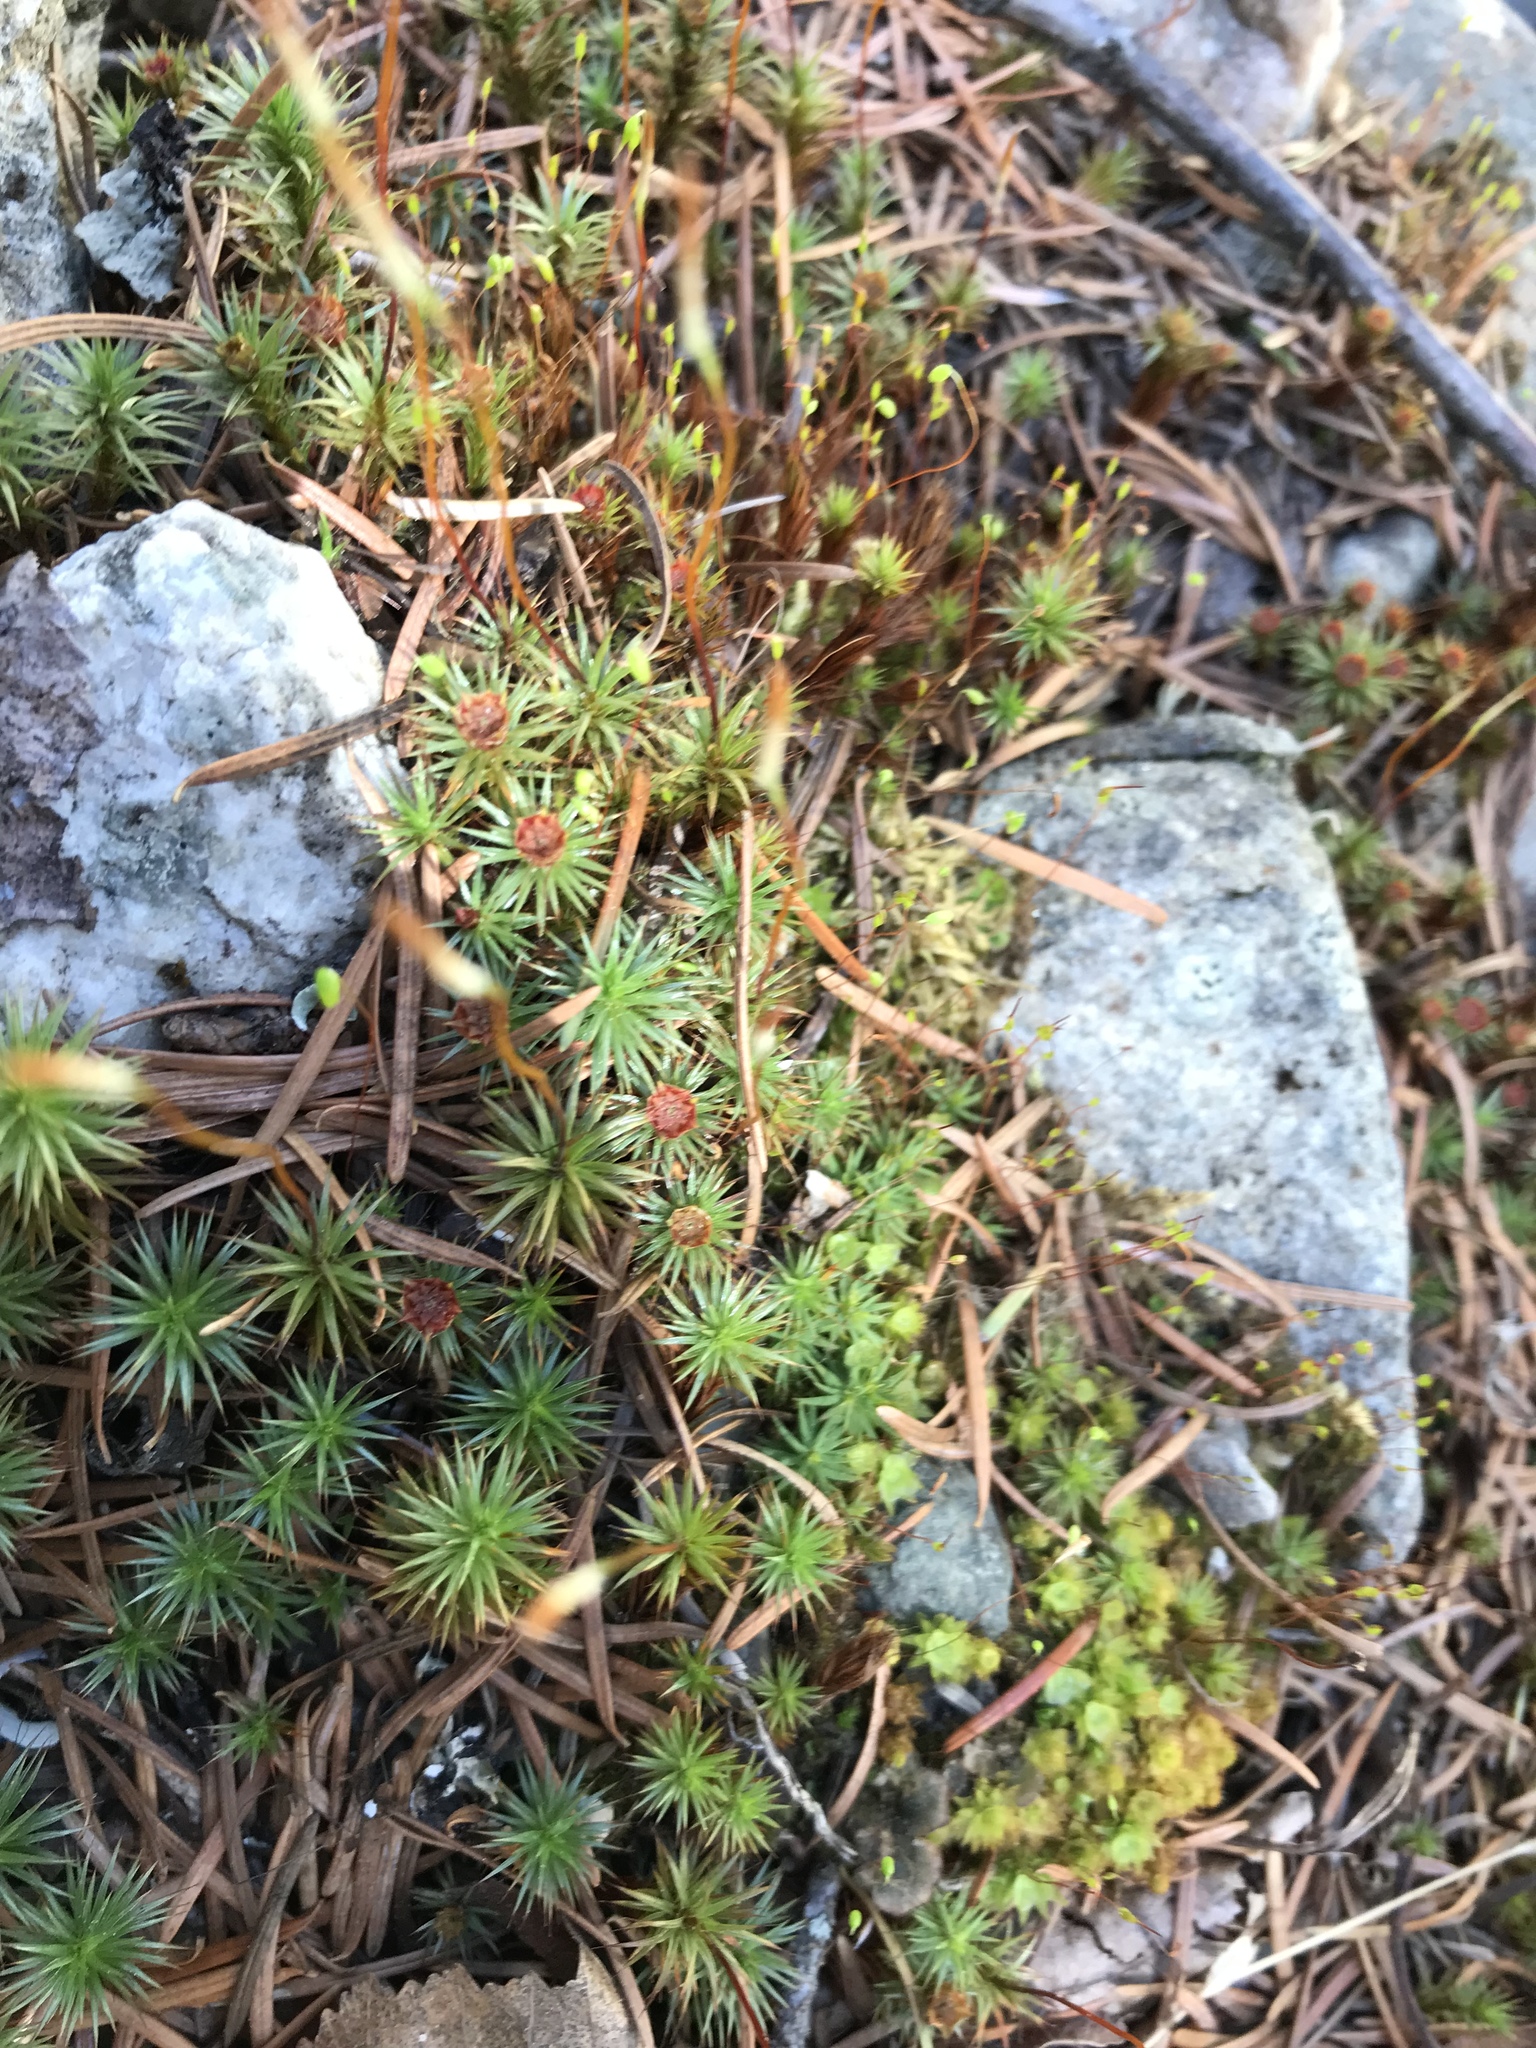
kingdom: Plantae
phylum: Bryophyta
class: Polytrichopsida
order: Polytrichales
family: Polytrichaceae
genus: Polytrichum
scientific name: Polytrichum piliferum
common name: Bristly haircap
